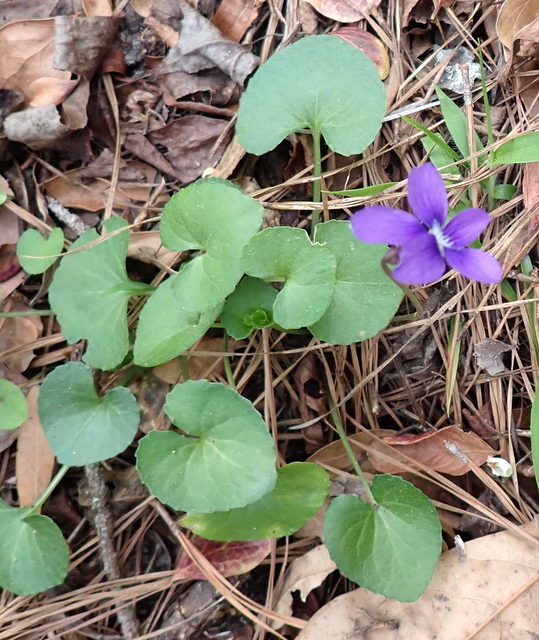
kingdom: Plantae
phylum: Tracheophyta
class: Magnoliopsida
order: Malpighiales
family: Violaceae
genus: Viola
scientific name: Viola sororia
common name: Dooryard violet
